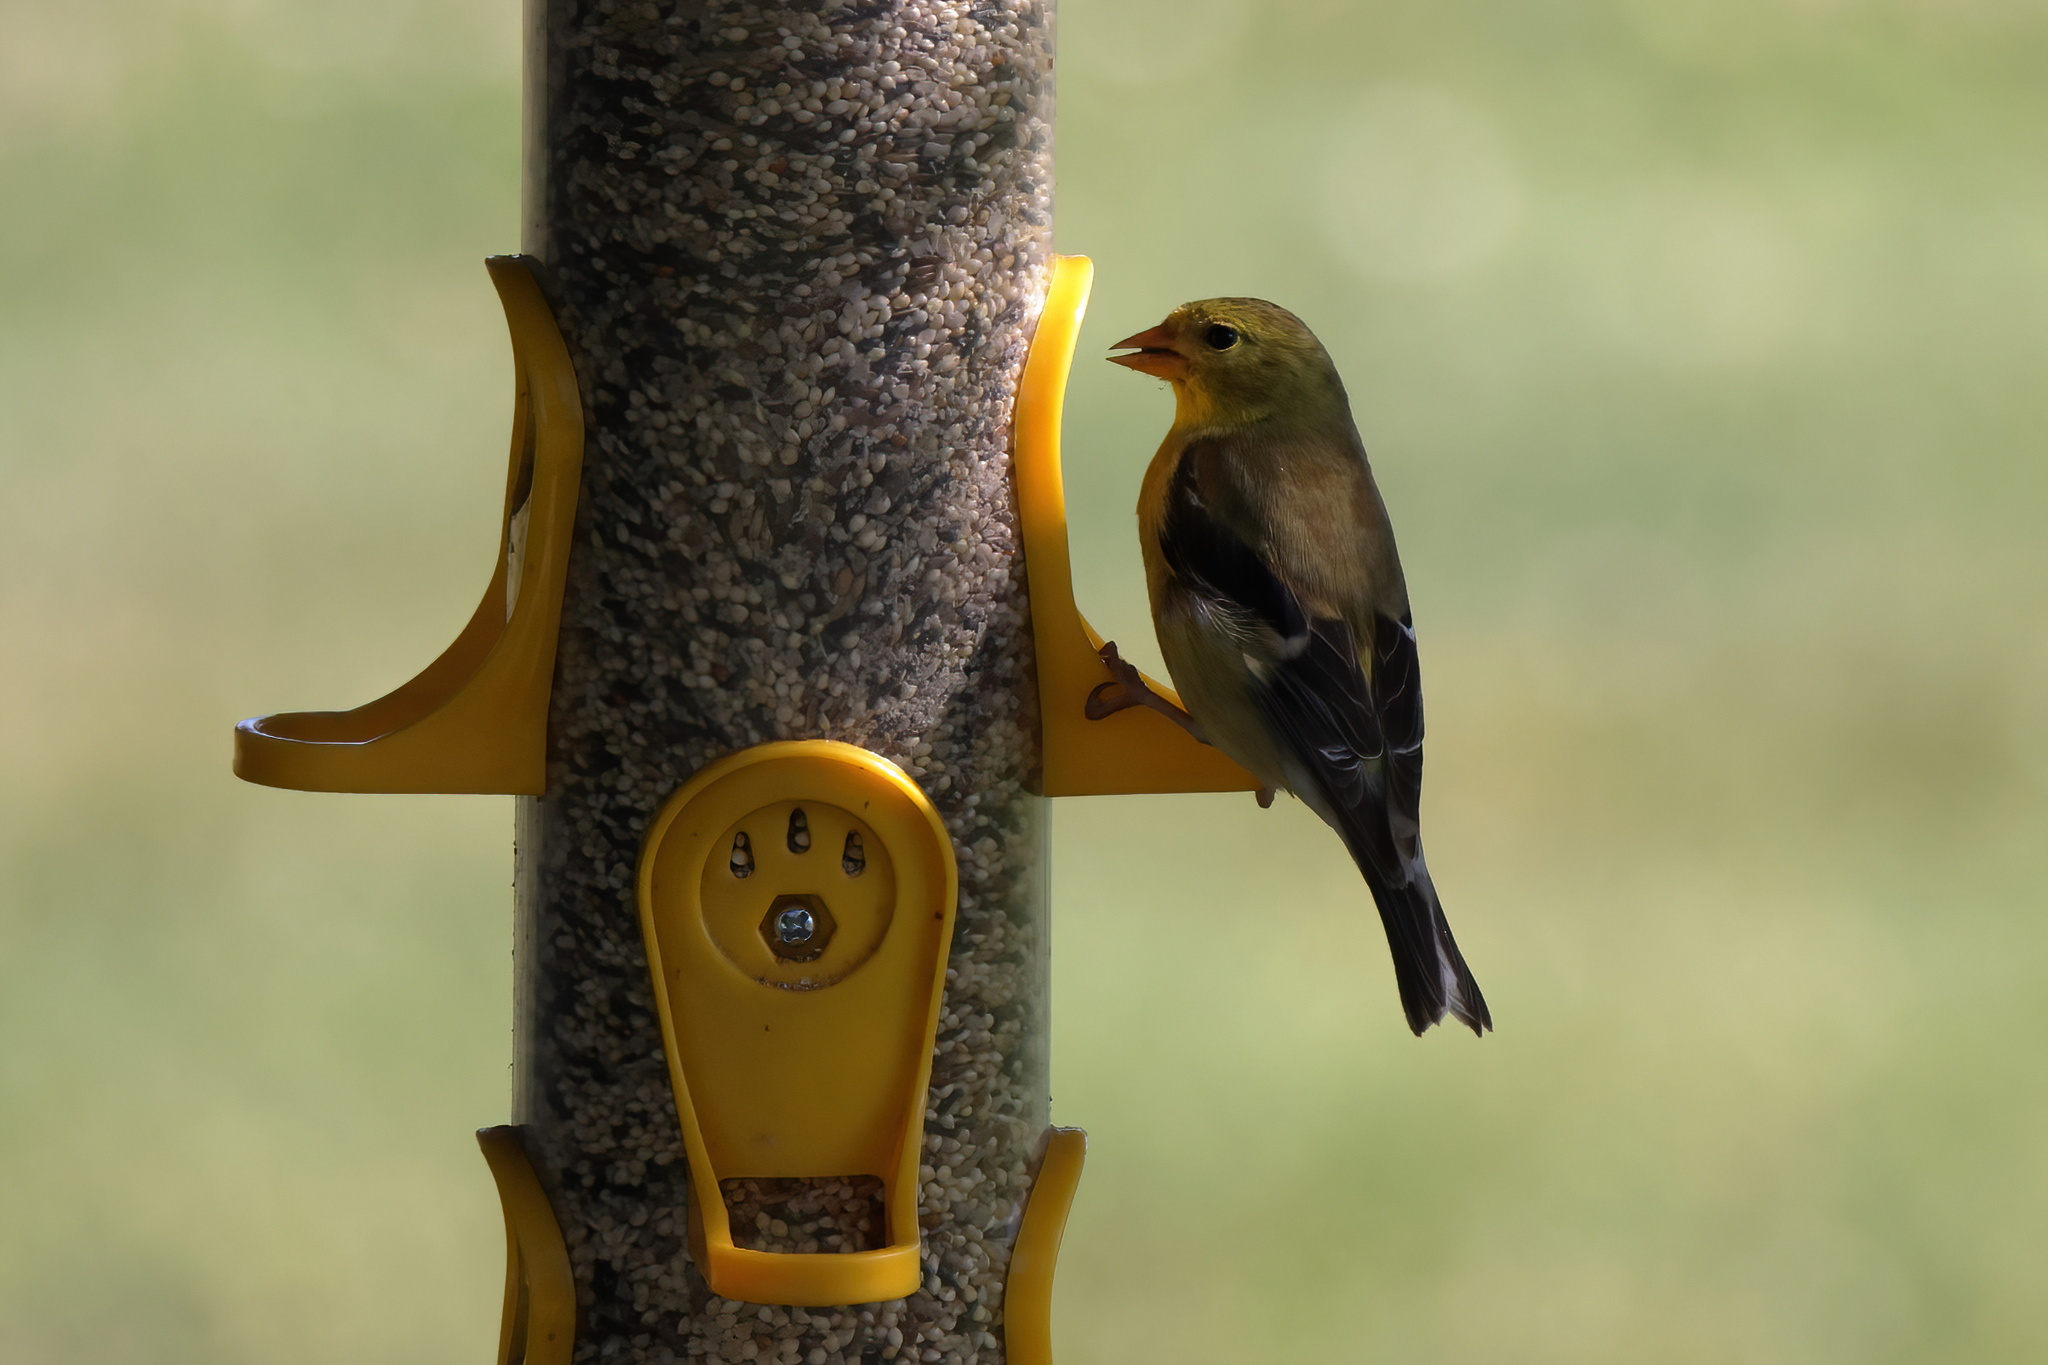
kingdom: Animalia
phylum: Chordata
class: Aves
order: Passeriformes
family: Fringillidae
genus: Spinus
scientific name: Spinus tristis
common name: American goldfinch
